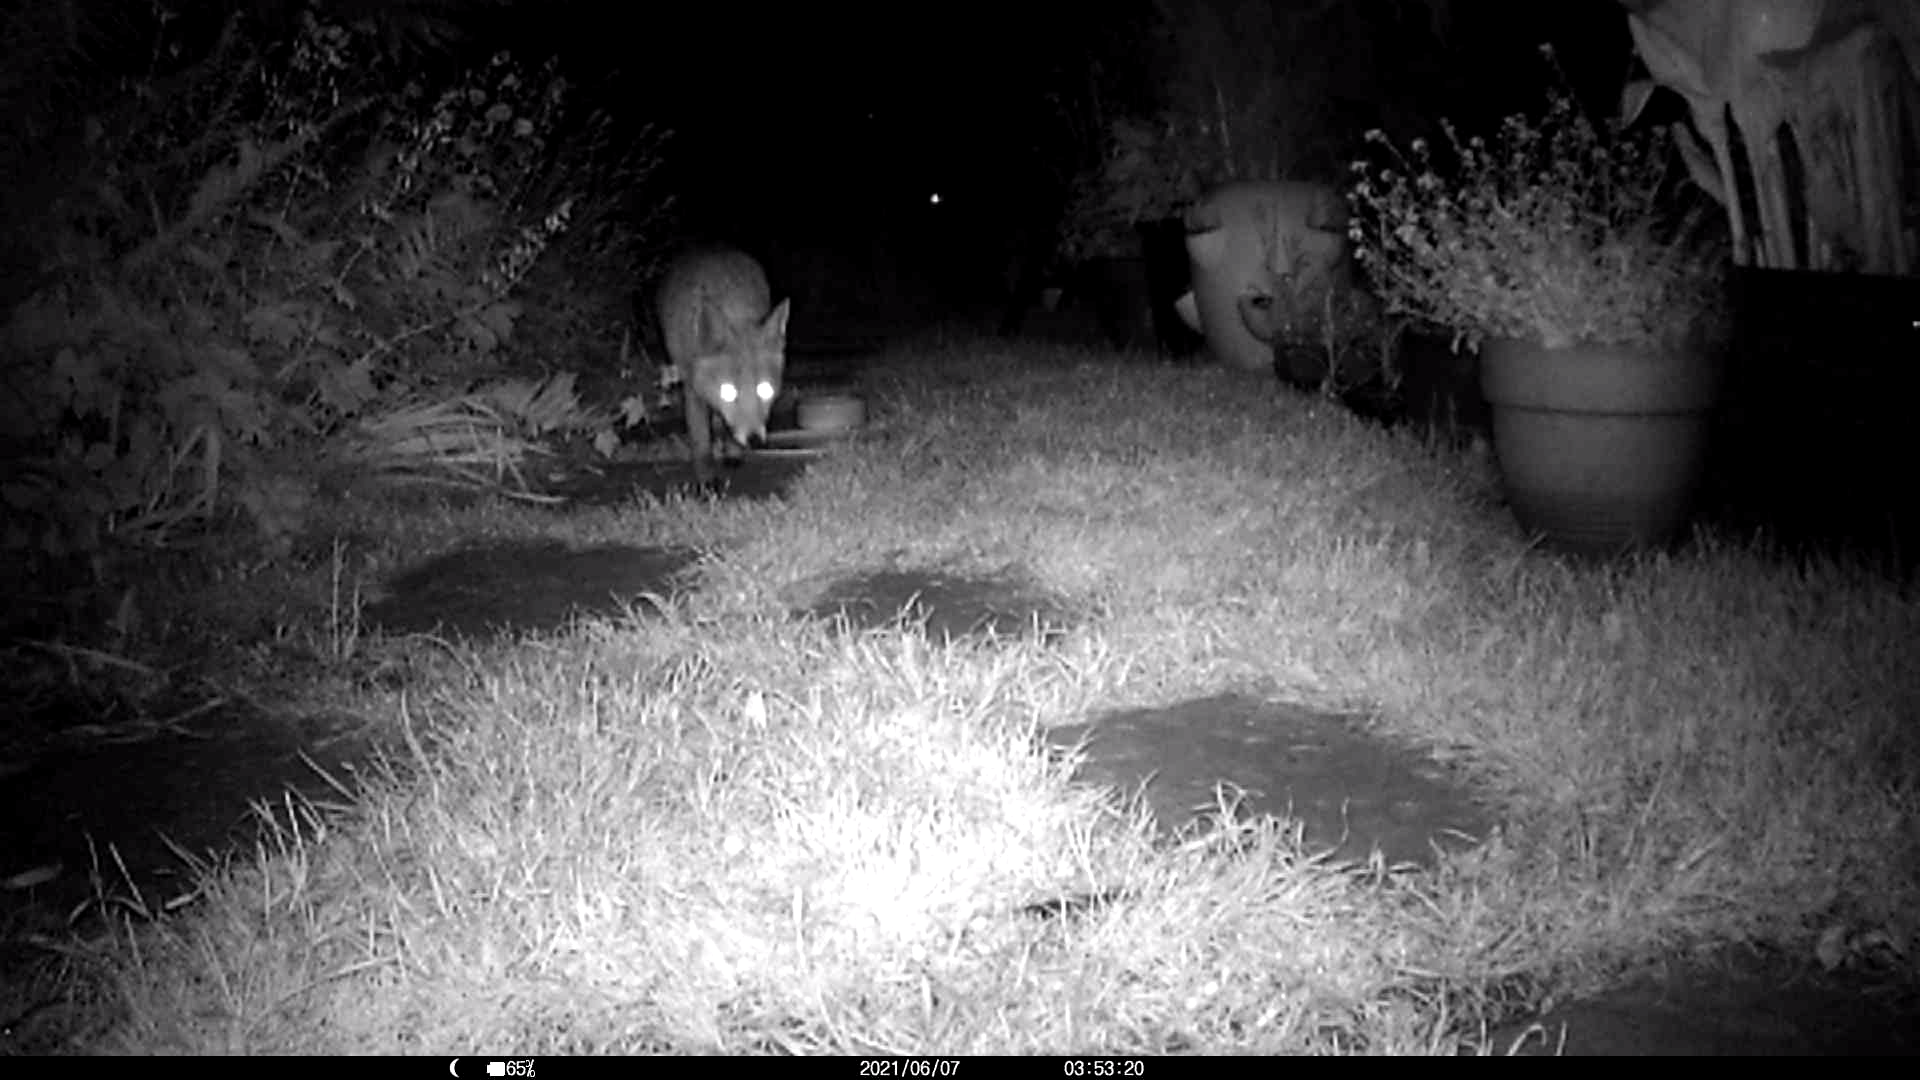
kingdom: Animalia
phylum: Chordata
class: Mammalia
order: Carnivora
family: Canidae
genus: Vulpes
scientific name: Vulpes vulpes
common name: Red fox
